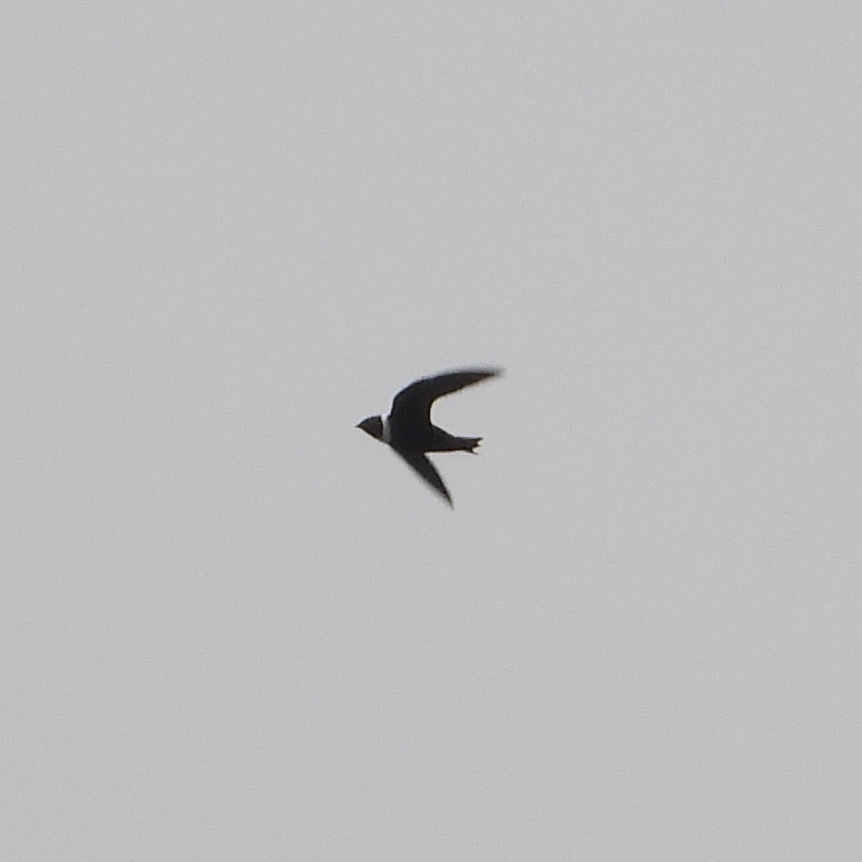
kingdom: Animalia
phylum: Chordata
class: Aves
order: Apodiformes
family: Apodidae
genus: Streptoprocne
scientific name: Streptoprocne zonaris
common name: White-collared swift
